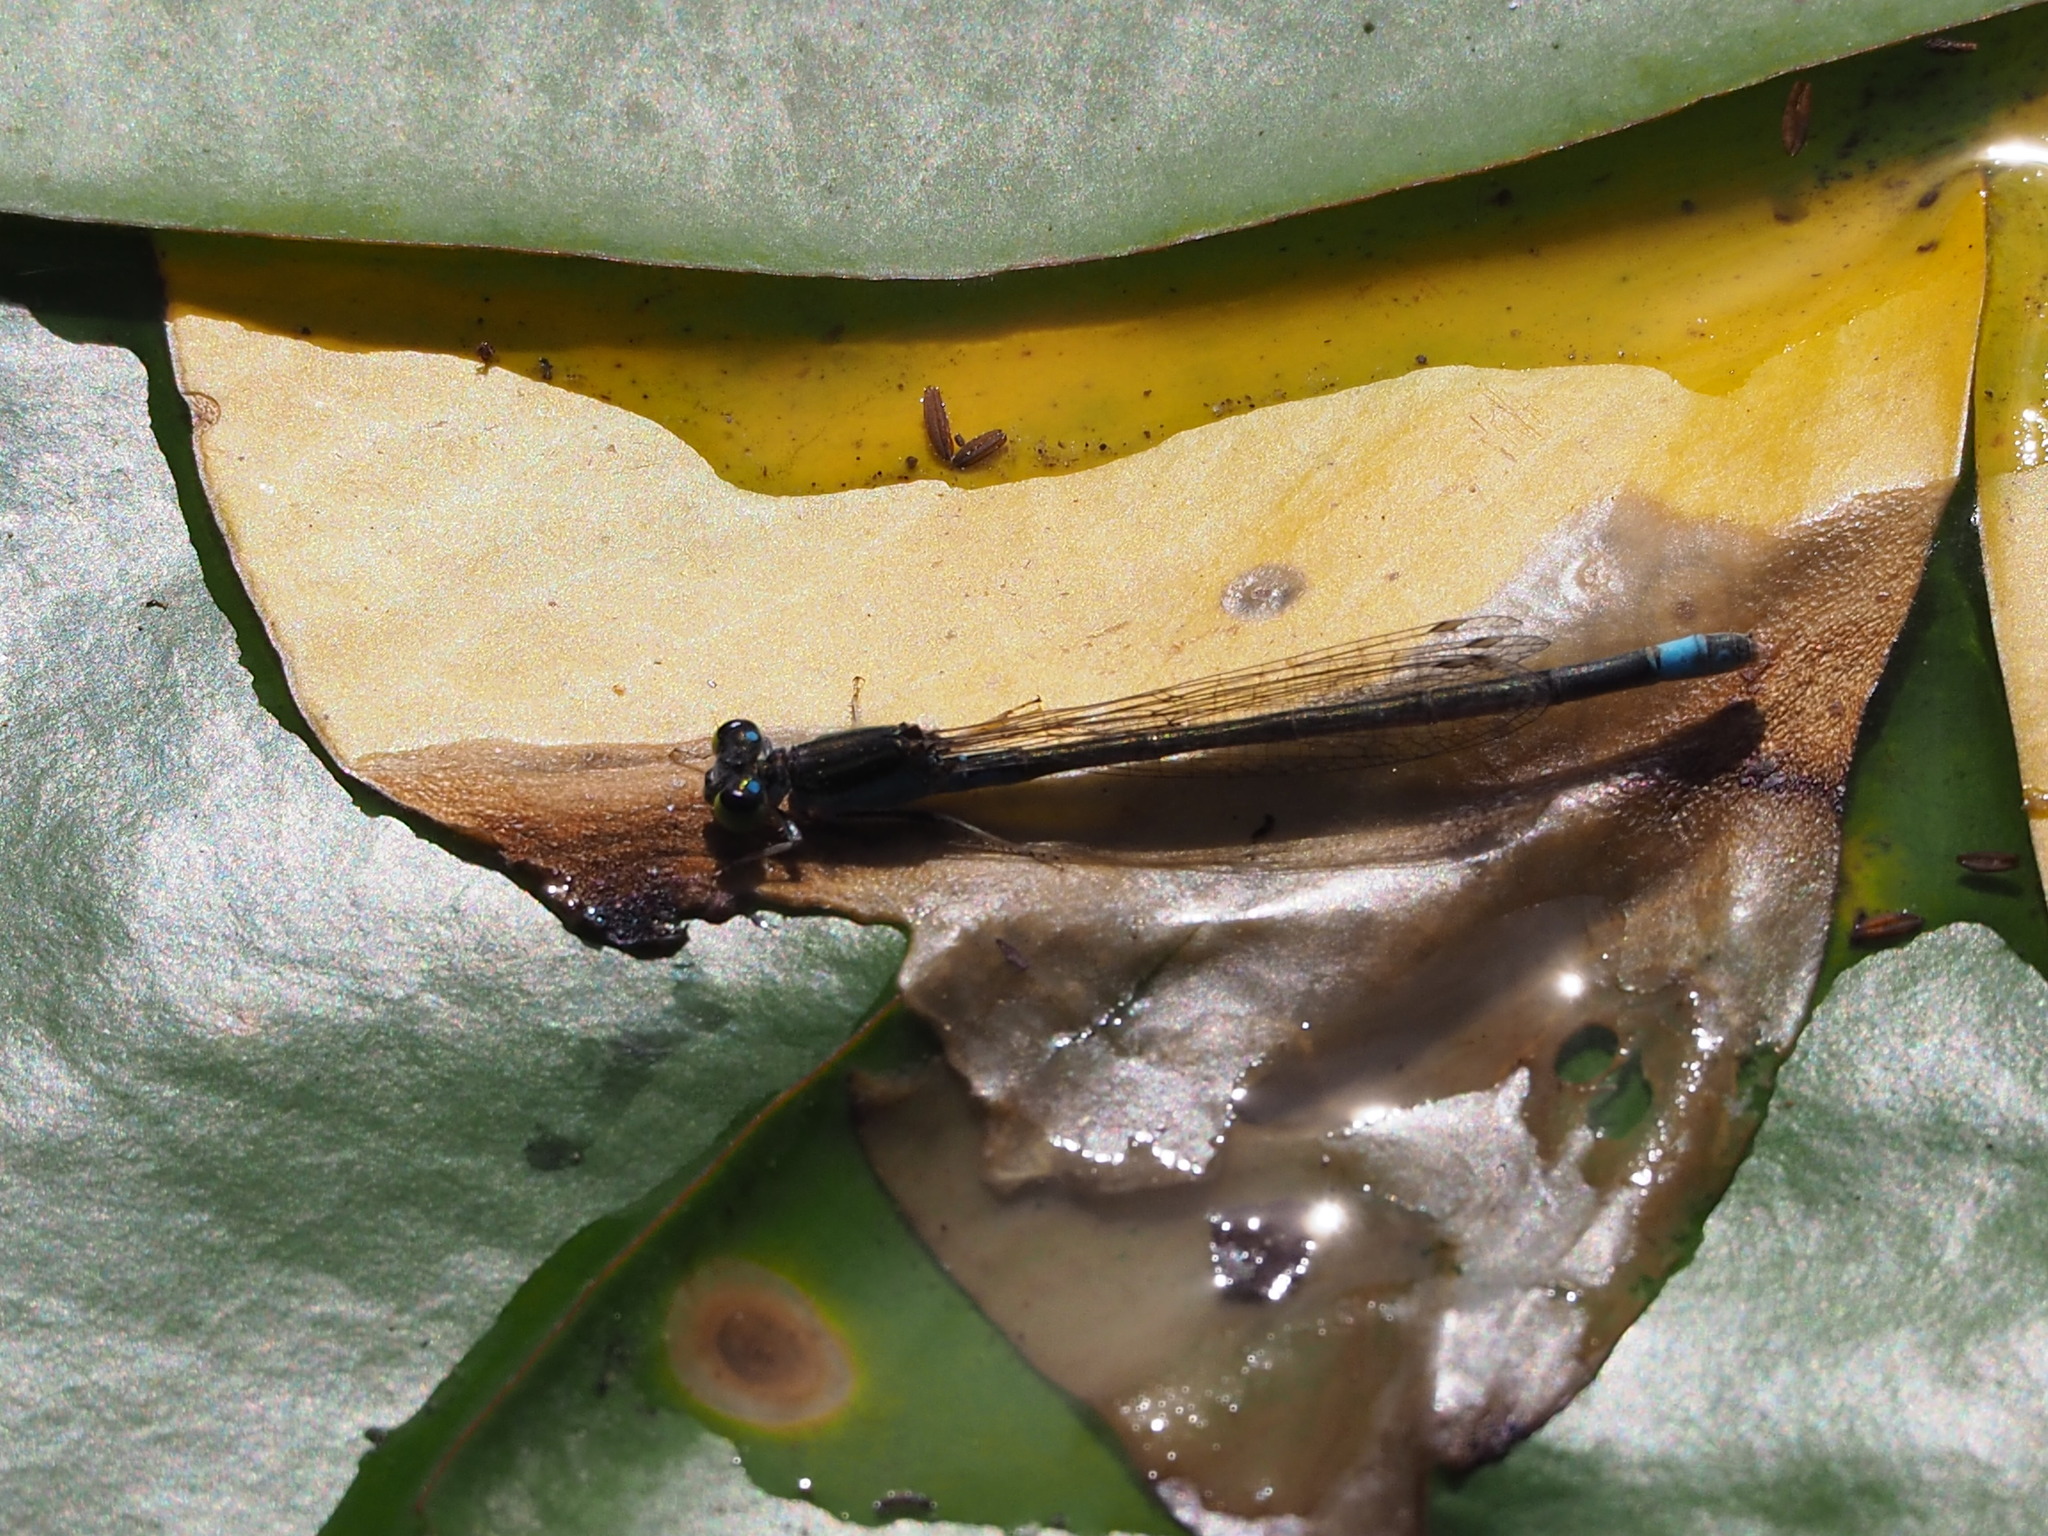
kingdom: Animalia
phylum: Arthropoda
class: Insecta
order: Odonata
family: Coenagrionidae
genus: Paracercion
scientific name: Paracercion calamorum
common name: Dusky lilysquatter
